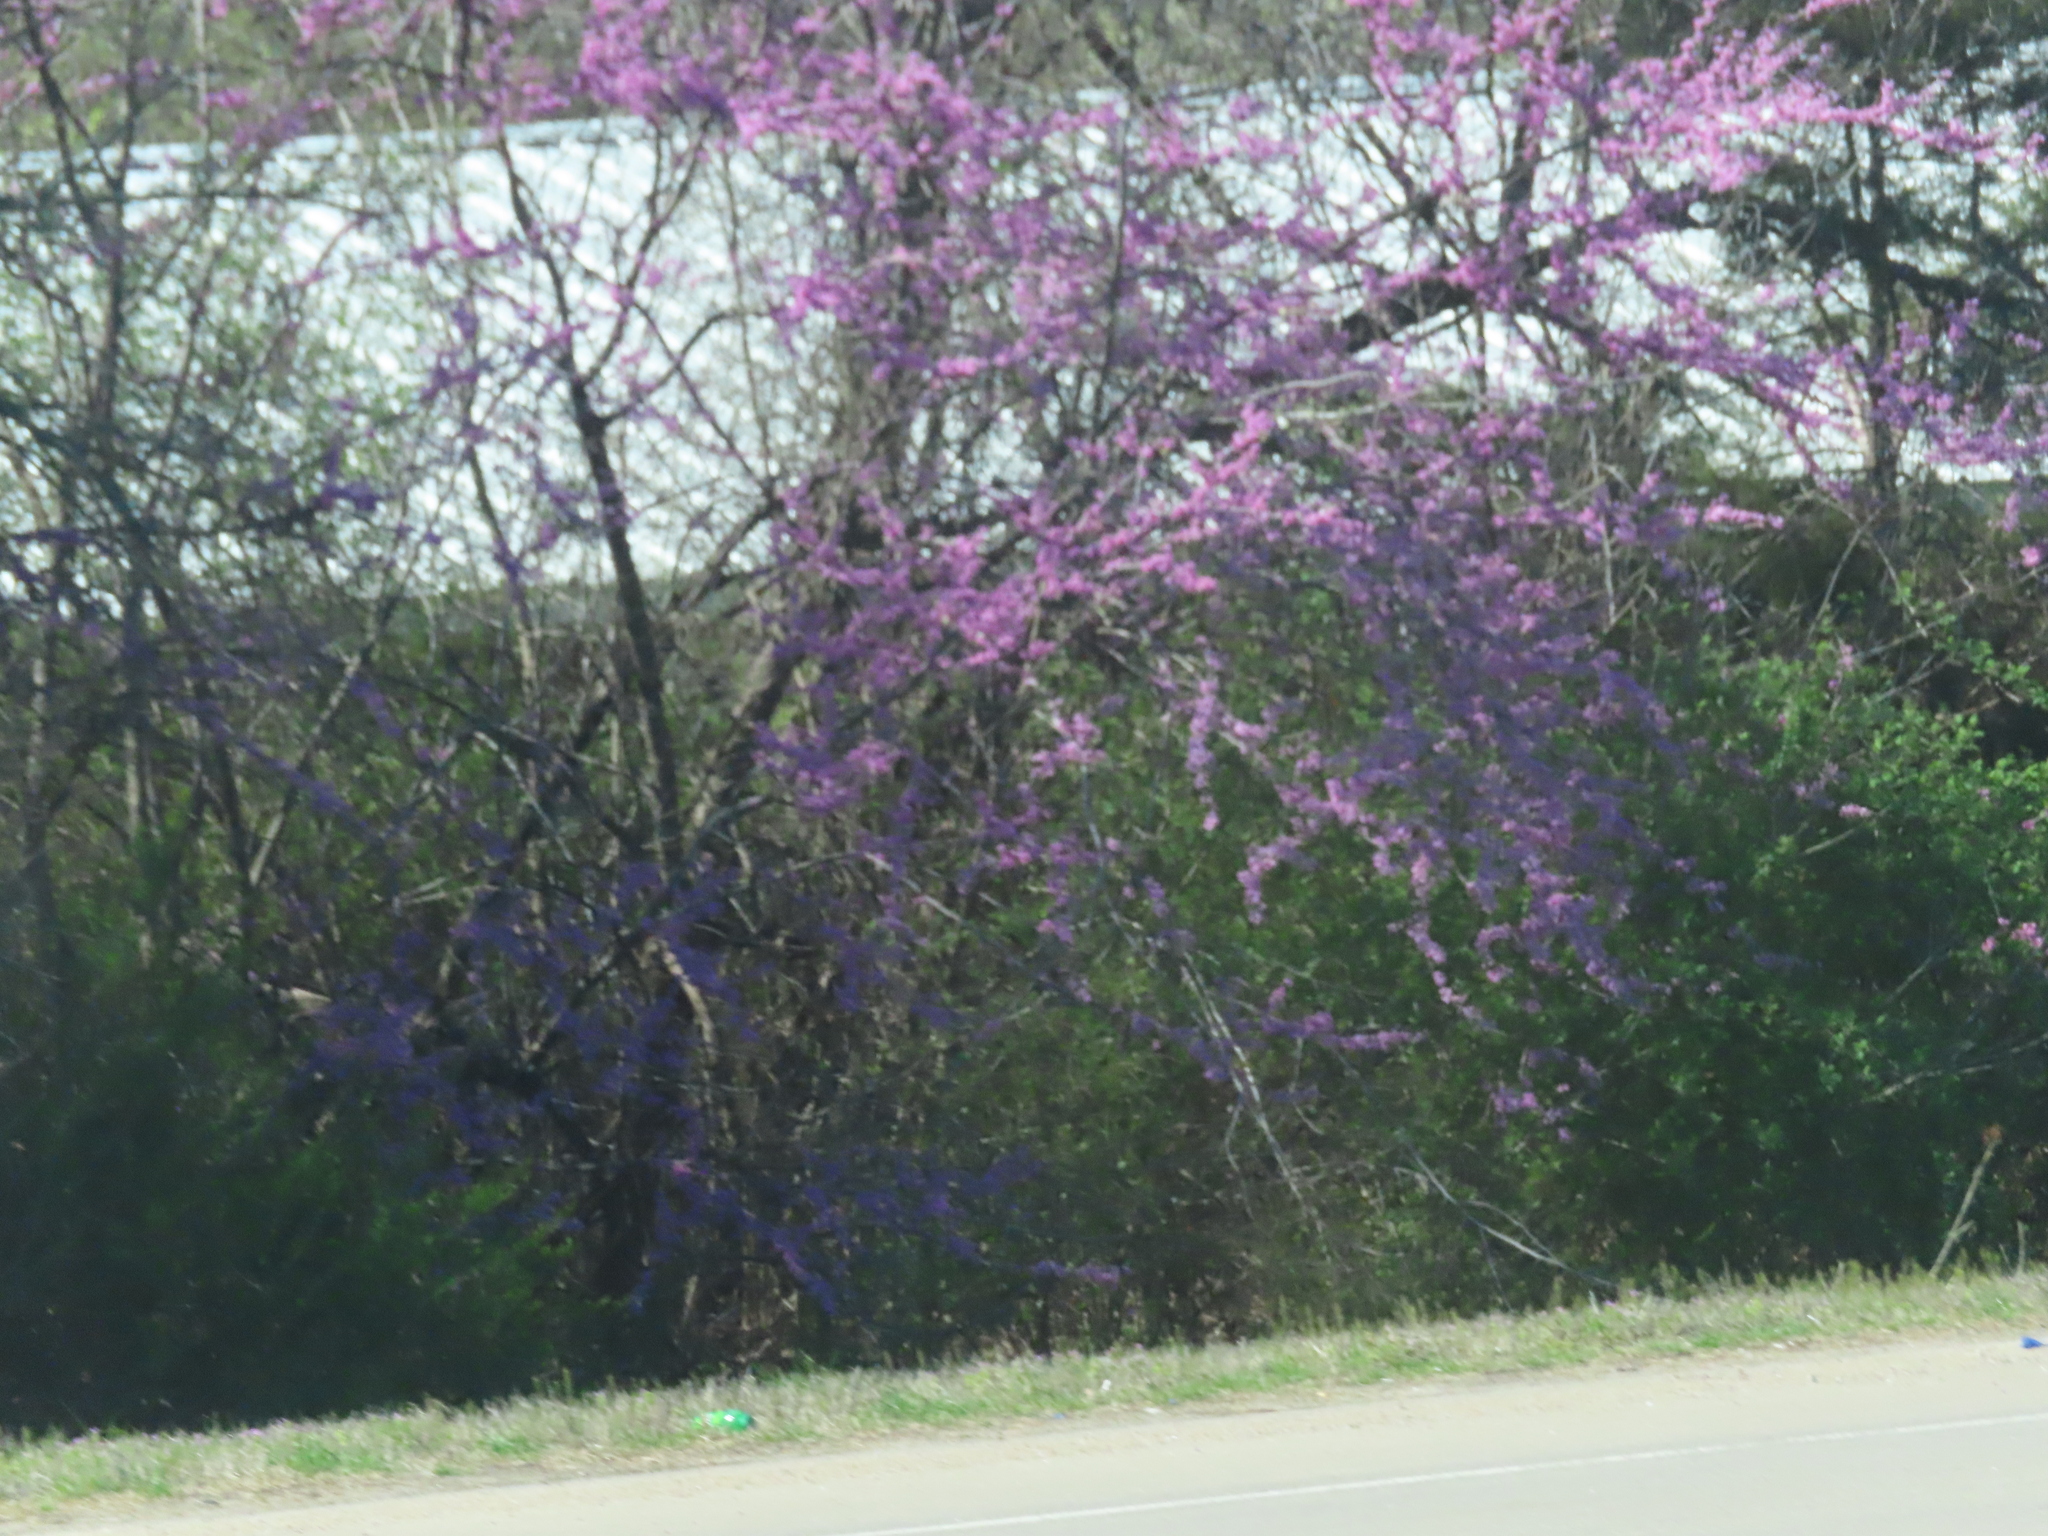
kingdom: Plantae
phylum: Tracheophyta
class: Magnoliopsida
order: Fabales
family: Fabaceae
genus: Cercis
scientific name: Cercis canadensis
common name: Eastern redbud
